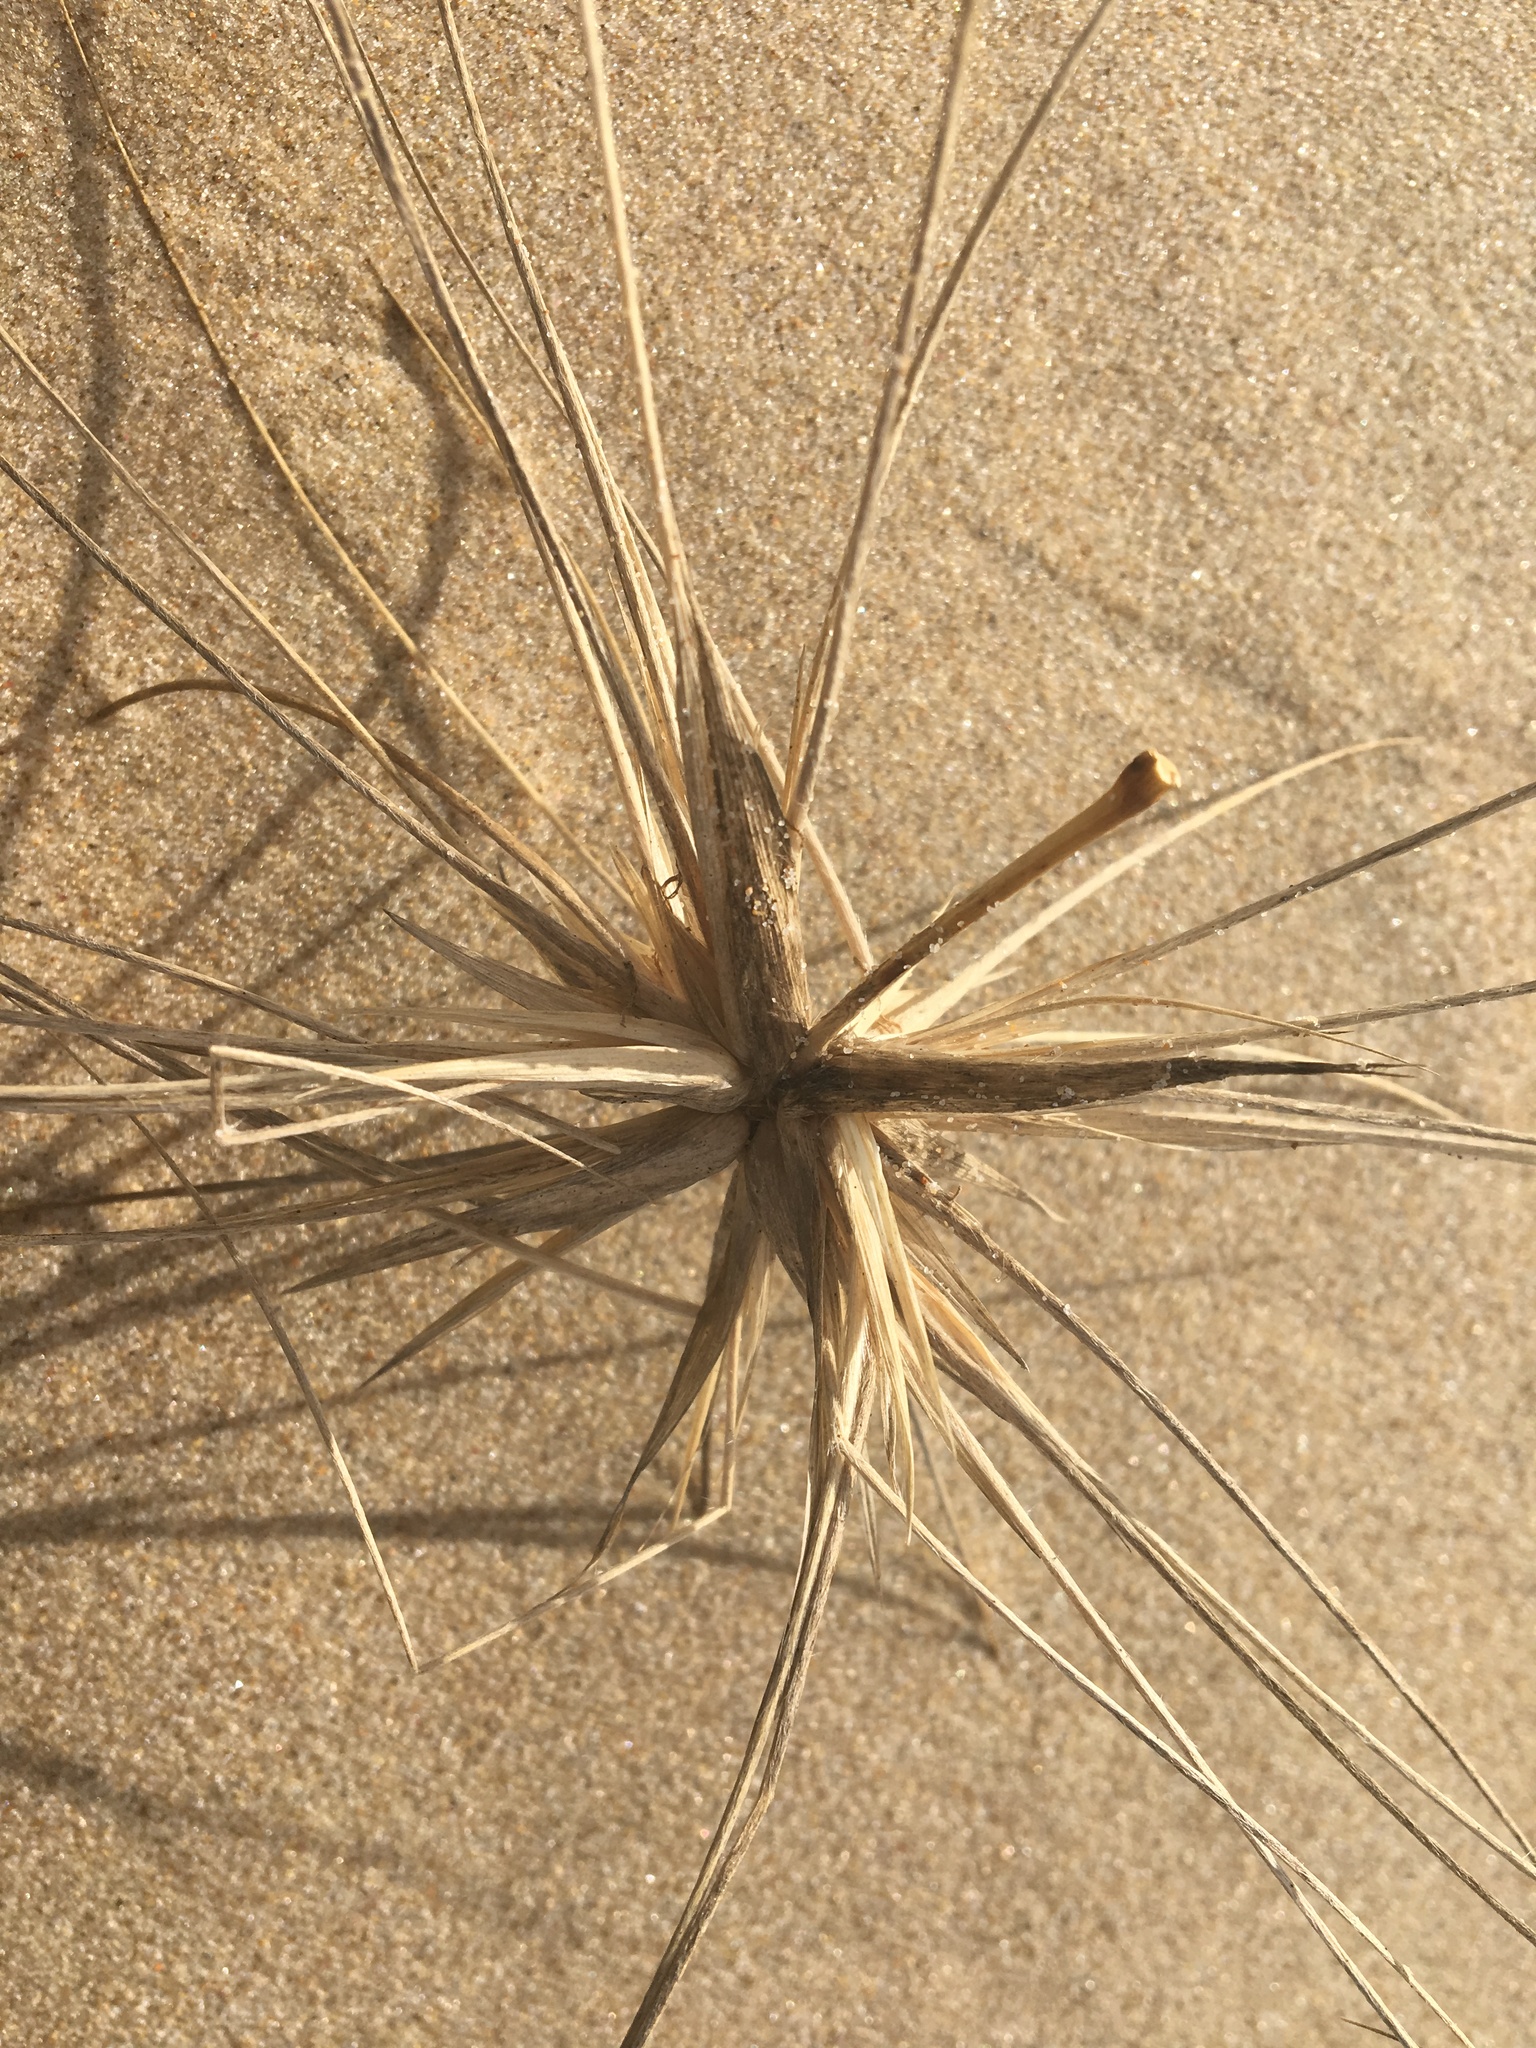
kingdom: Plantae
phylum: Tracheophyta
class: Liliopsida
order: Poales
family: Poaceae
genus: Spinifex
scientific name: Spinifex sericeus
